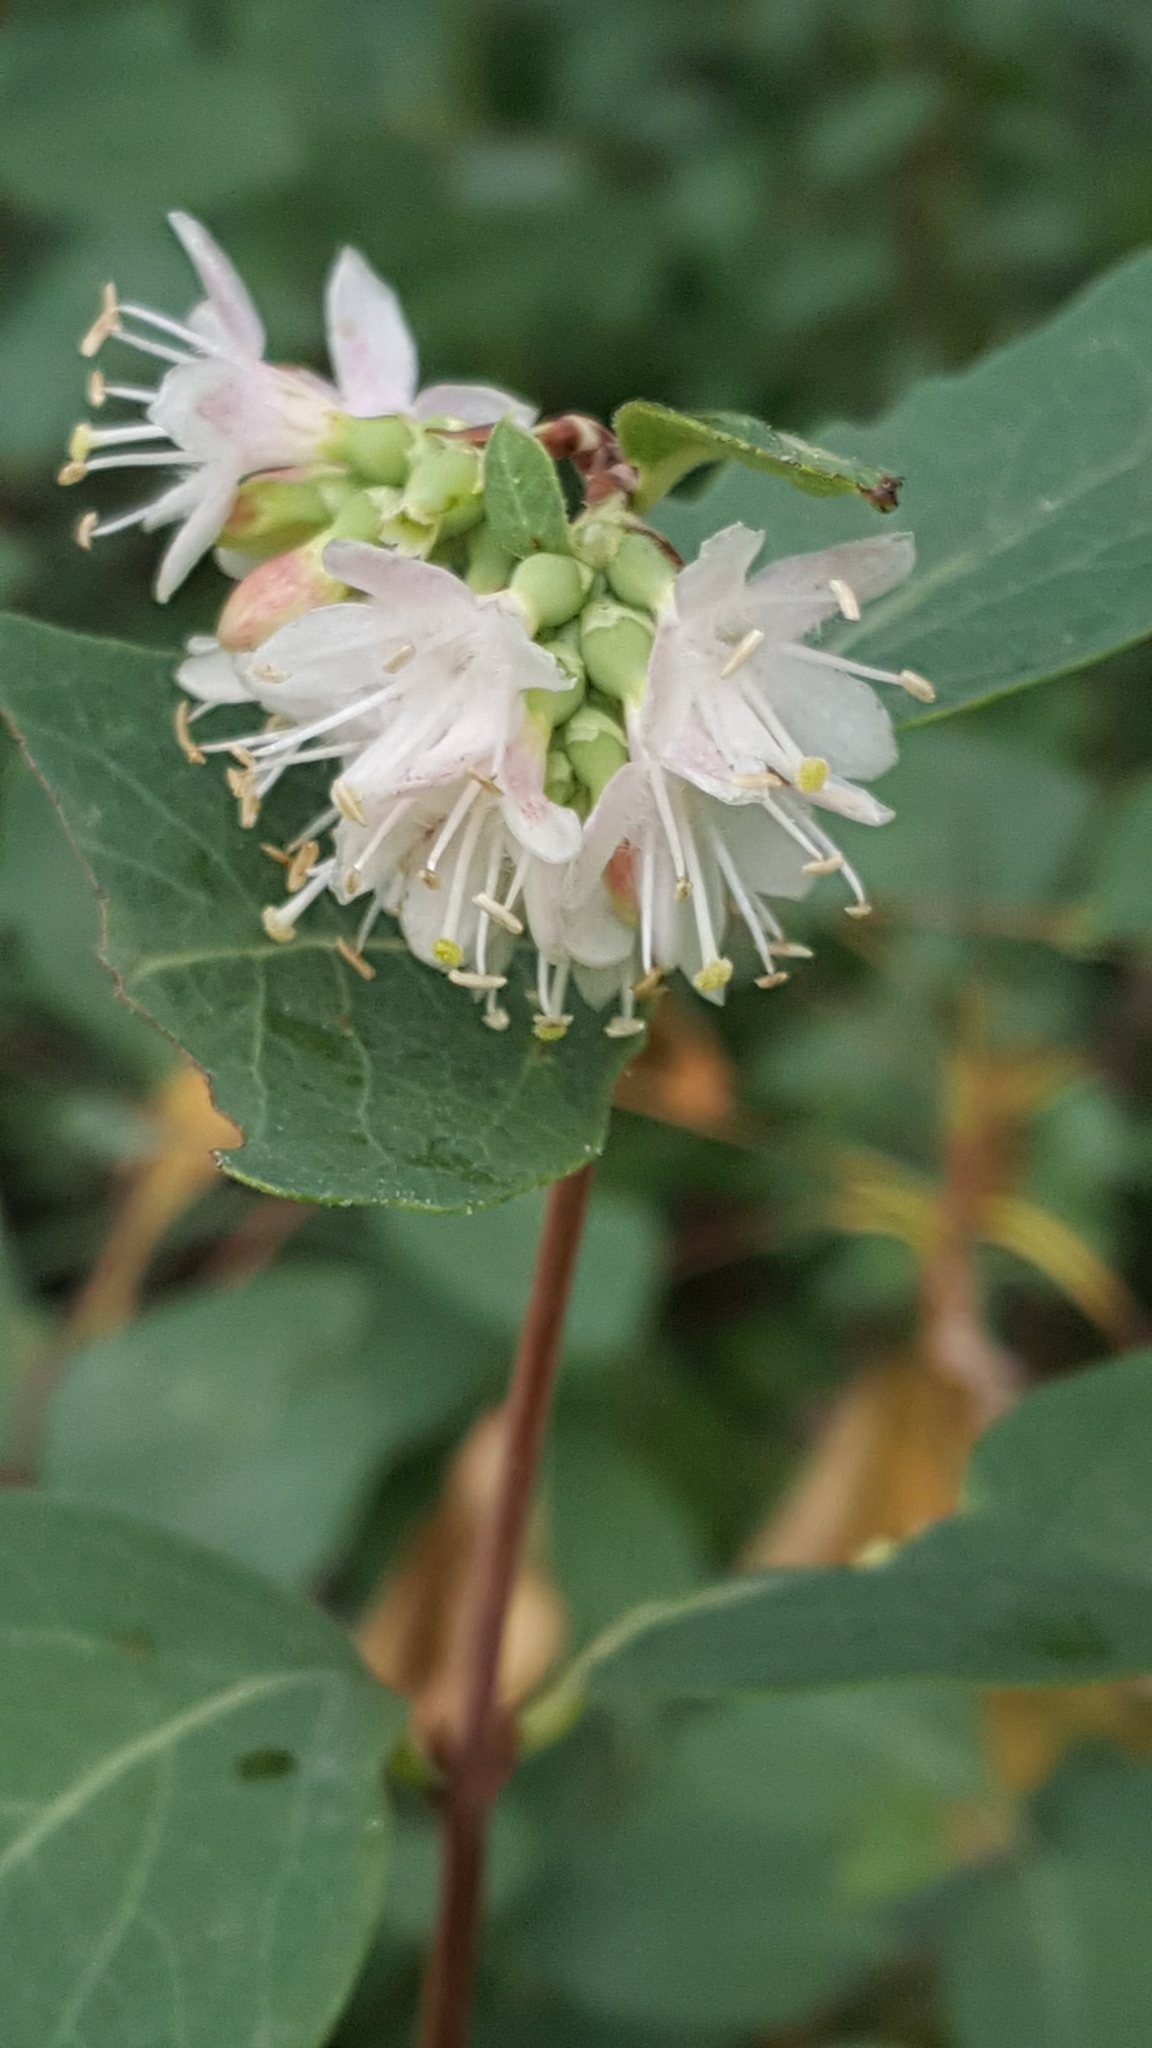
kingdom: Plantae
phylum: Tracheophyta
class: Magnoliopsida
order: Dipsacales
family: Caprifoliaceae
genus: Symphoricarpos
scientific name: Symphoricarpos occidentalis
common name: Wolfberry
